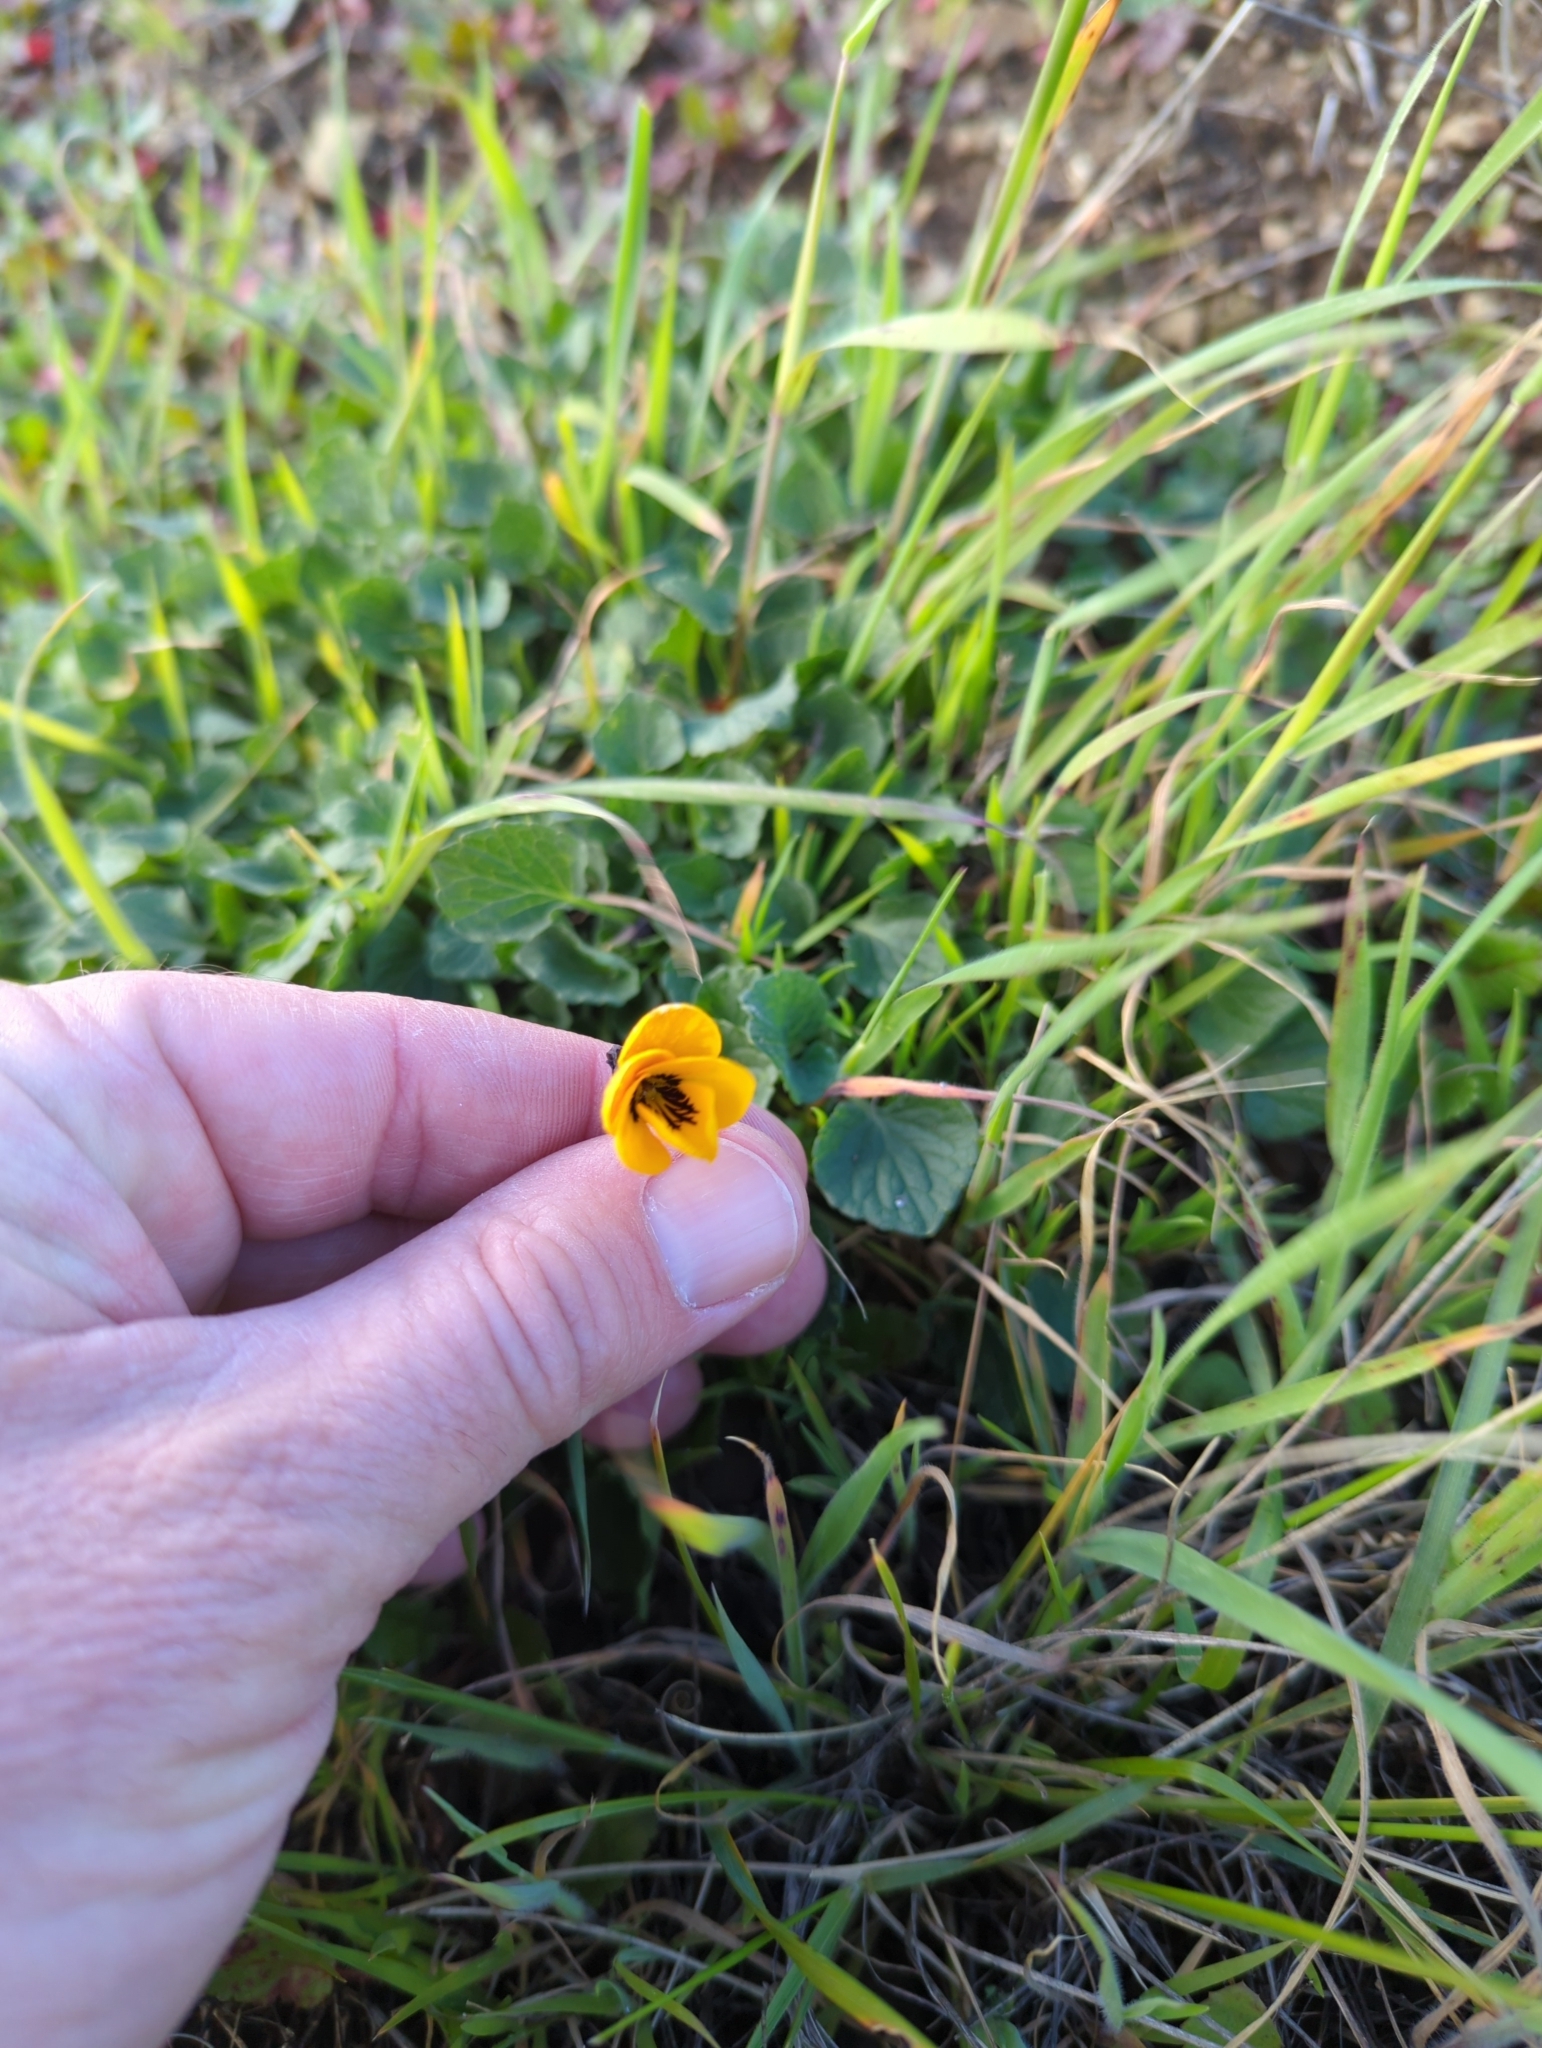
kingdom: Plantae
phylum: Tracheophyta
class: Magnoliopsida
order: Malpighiales
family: Violaceae
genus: Viola
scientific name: Viola pedunculata
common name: California golden violet
